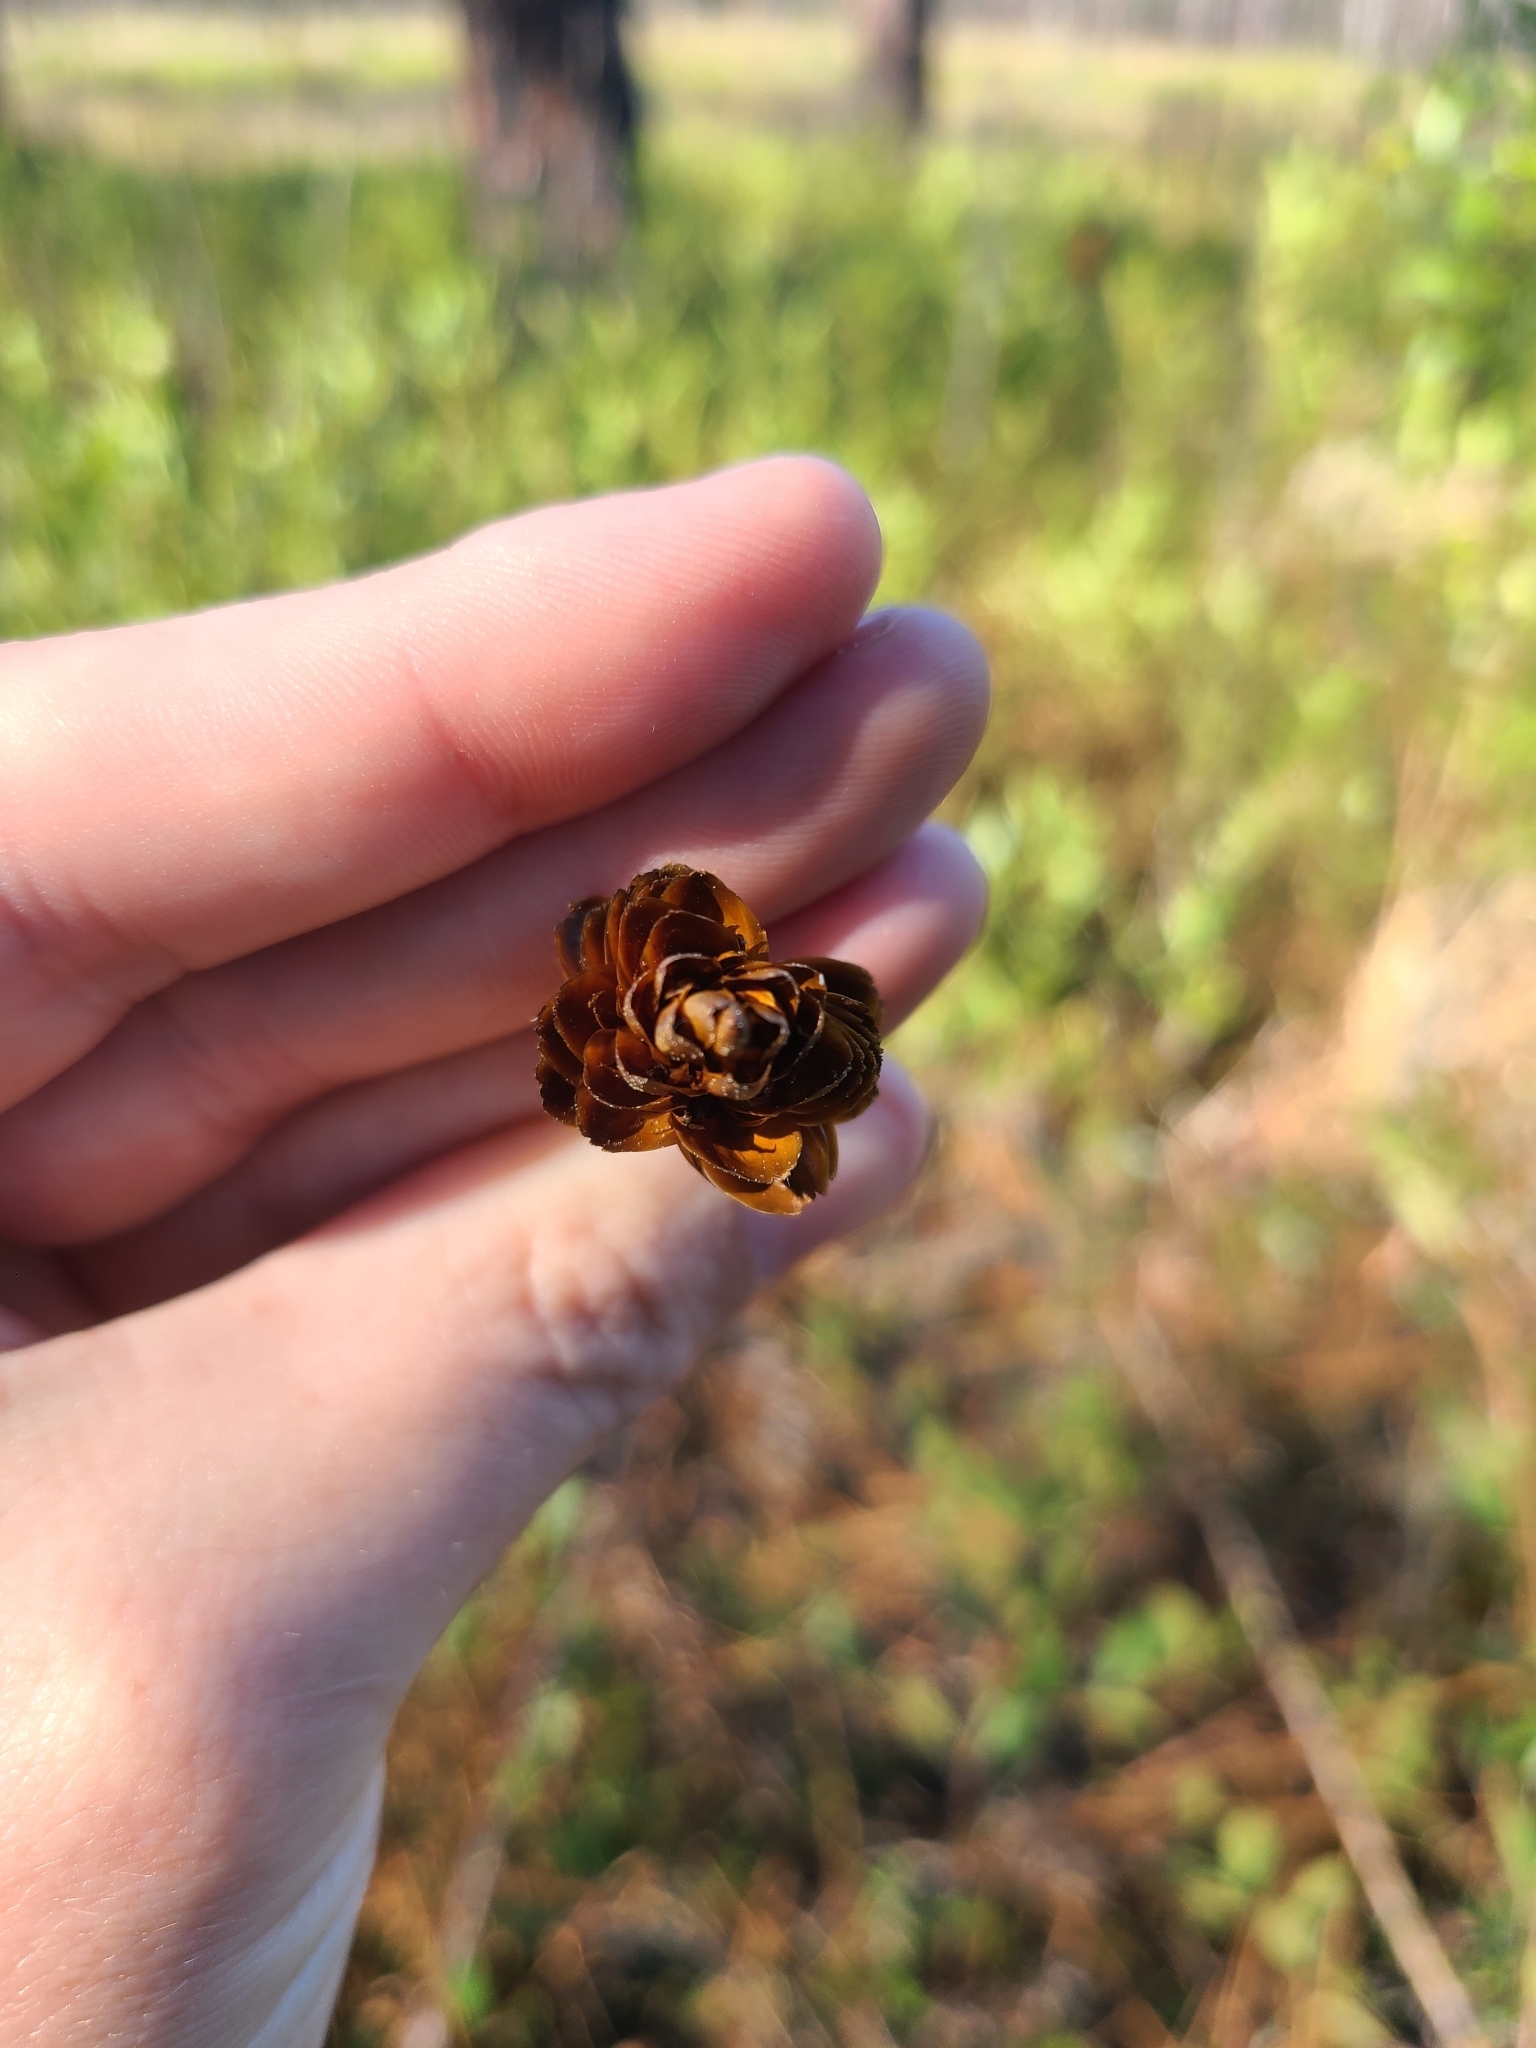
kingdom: Plantae
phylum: Tracheophyta
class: Liliopsida
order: Poales
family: Xyridaceae
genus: Xyris
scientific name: Xyris ambigua
